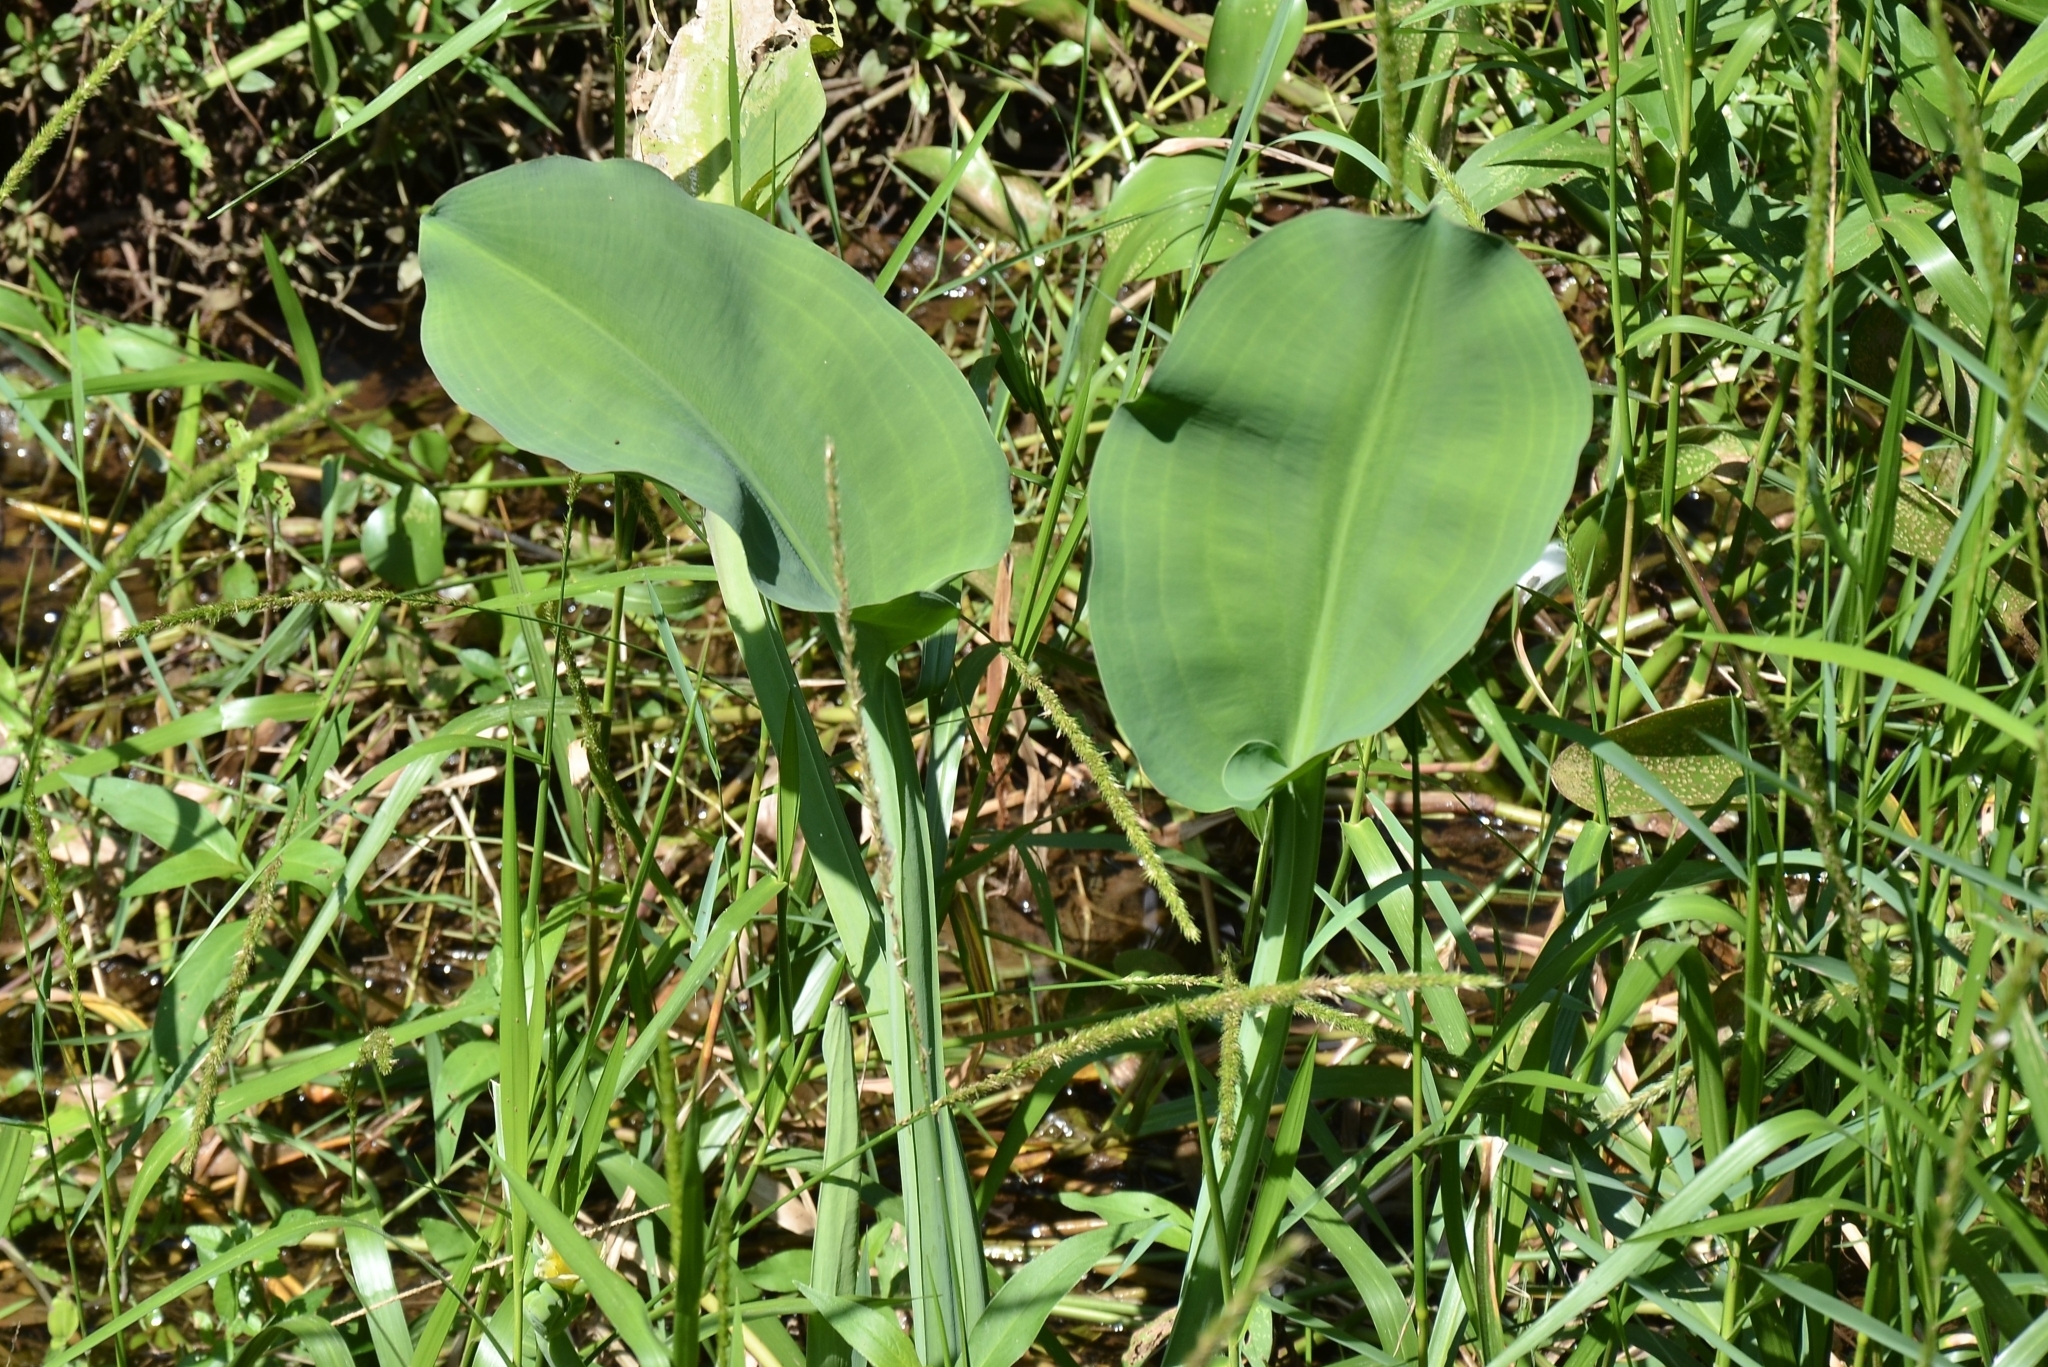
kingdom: Plantae
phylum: Tracheophyta
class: Liliopsida
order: Alismatales
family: Alismataceae
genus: Limnocharis
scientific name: Limnocharis flava
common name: Sawah-flower-rush
